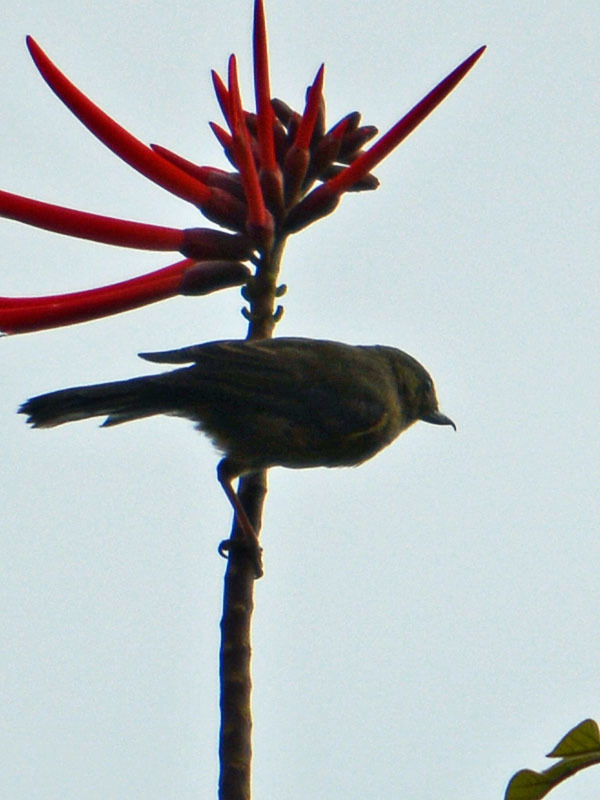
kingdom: Animalia
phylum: Chordata
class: Aves
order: Passeriformes
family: Thraupidae
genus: Diglossa
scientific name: Diglossa baritula
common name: Cinnamon-bellied flowerpiercer
